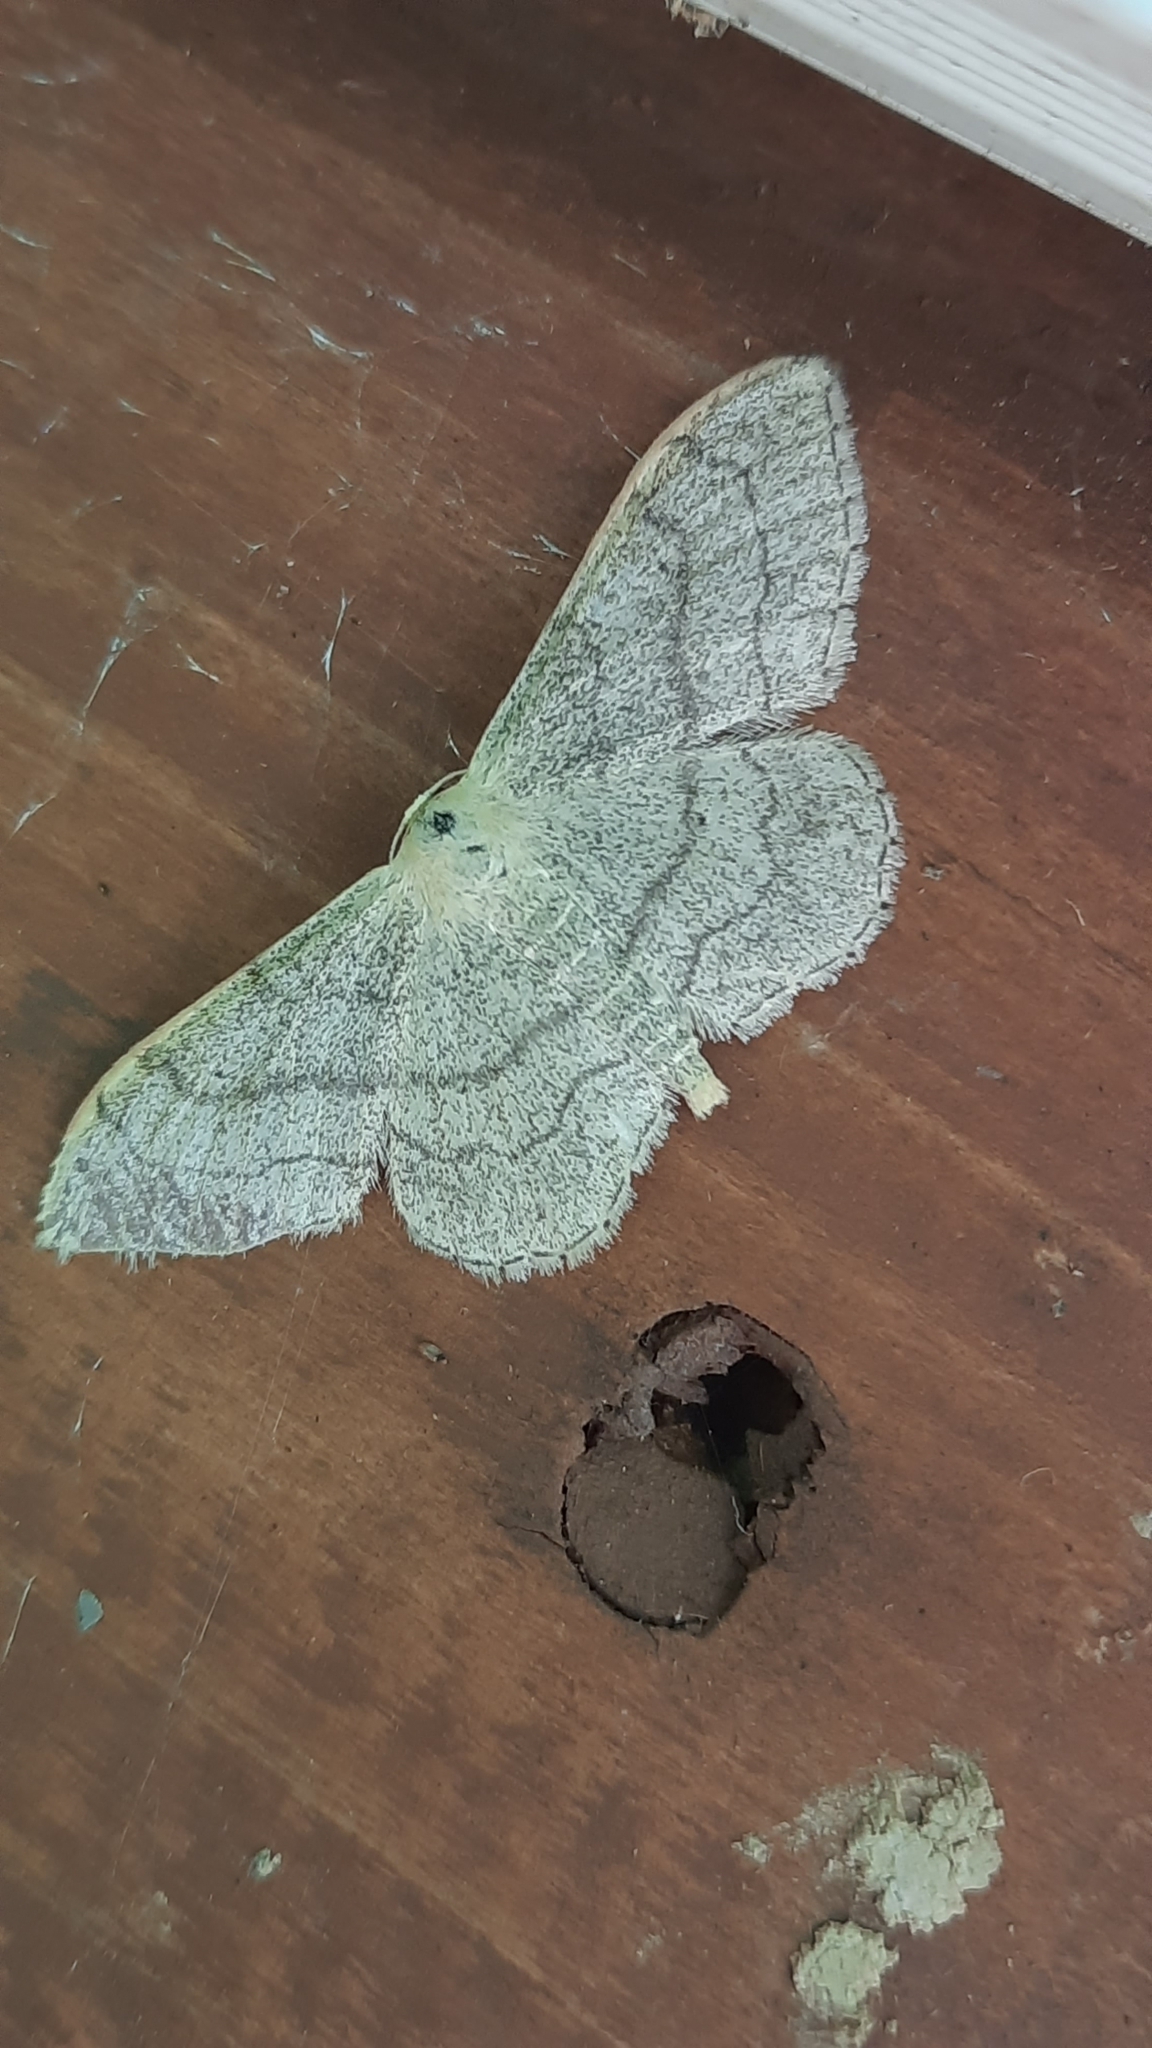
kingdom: Animalia
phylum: Arthropoda
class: Insecta
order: Lepidoptera
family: Geometridae
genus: Idaea
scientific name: Idaea aversata
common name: Riband wave
